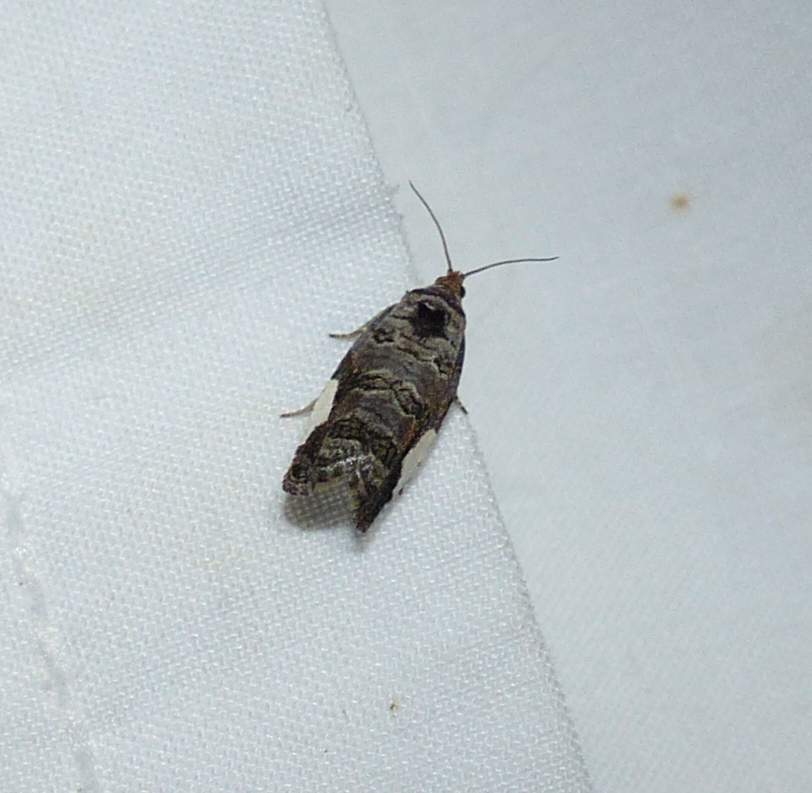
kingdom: Animalia
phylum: Arthropoda
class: Insecta
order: Lepidoptera
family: Tortricidae
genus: Hedya
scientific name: Hedya chionosema
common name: White-spotted hedya moth
